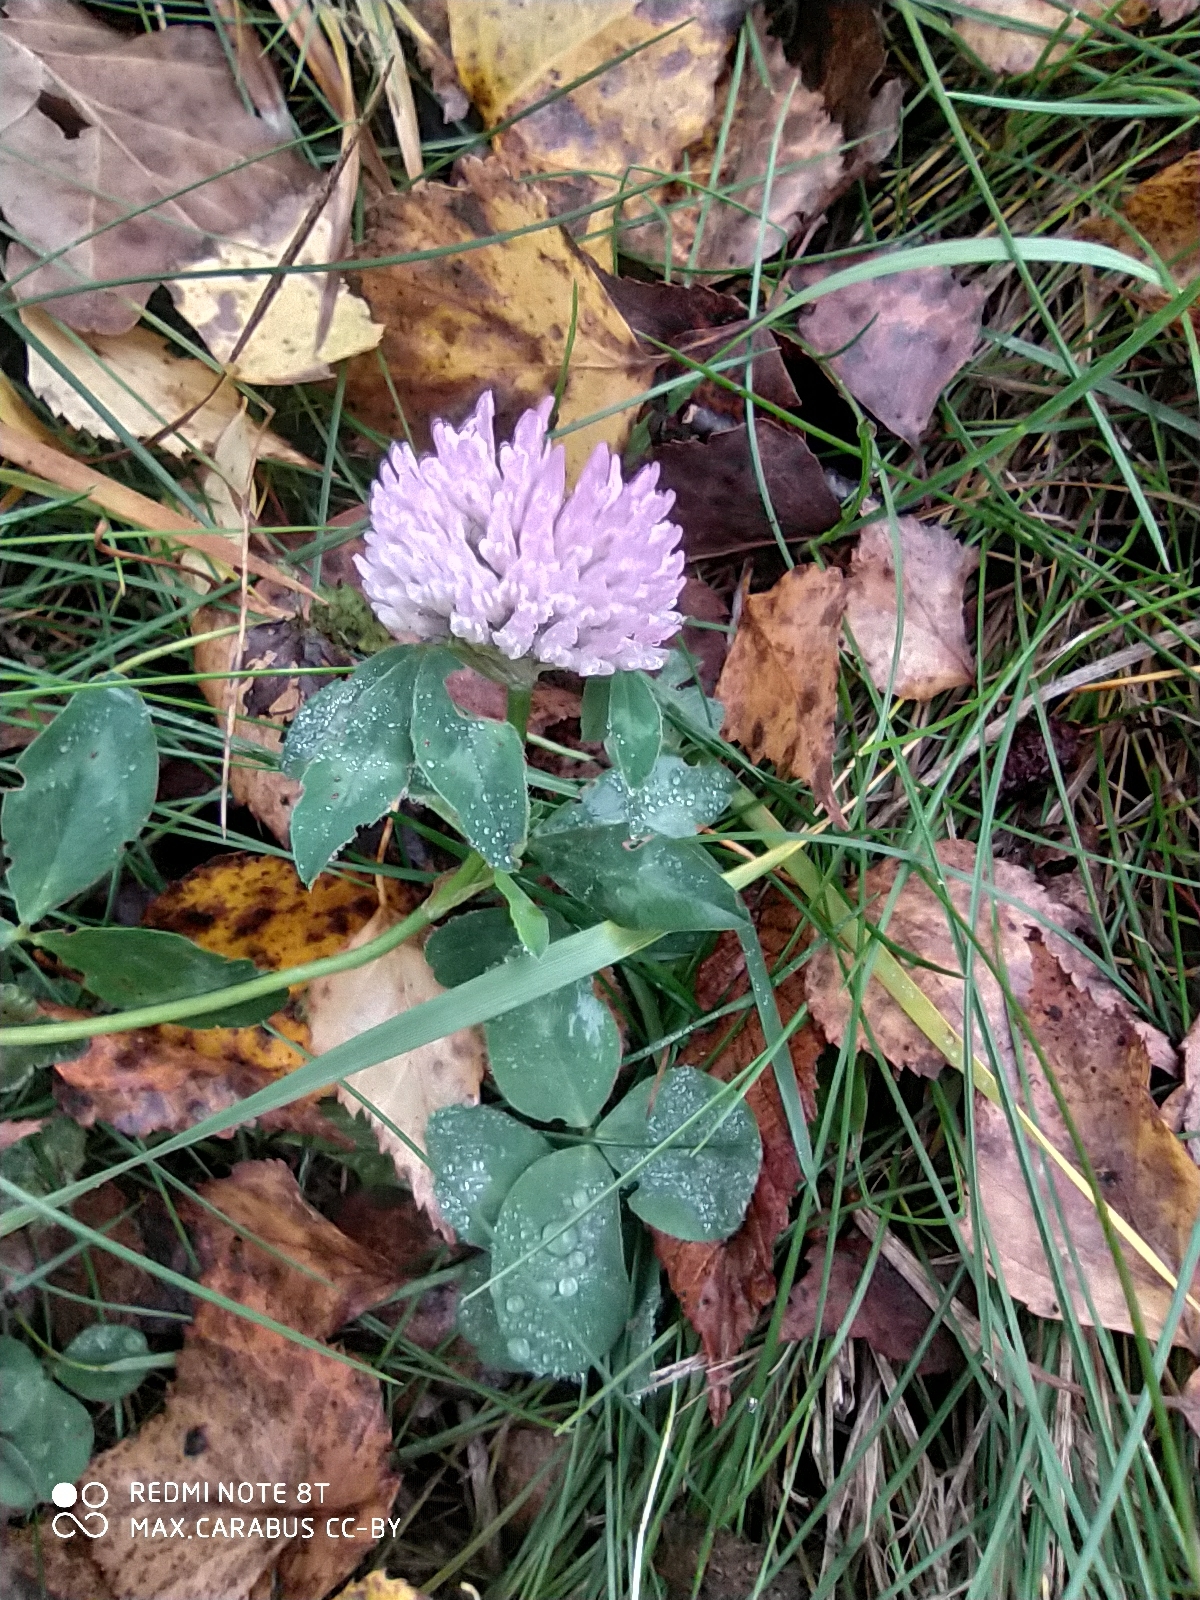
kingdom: Plantae
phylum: Tracheophyta
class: Magnoliopsida
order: Fabales
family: Fabaceae
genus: Trifolium
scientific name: Trifolium pratense
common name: Red clover
